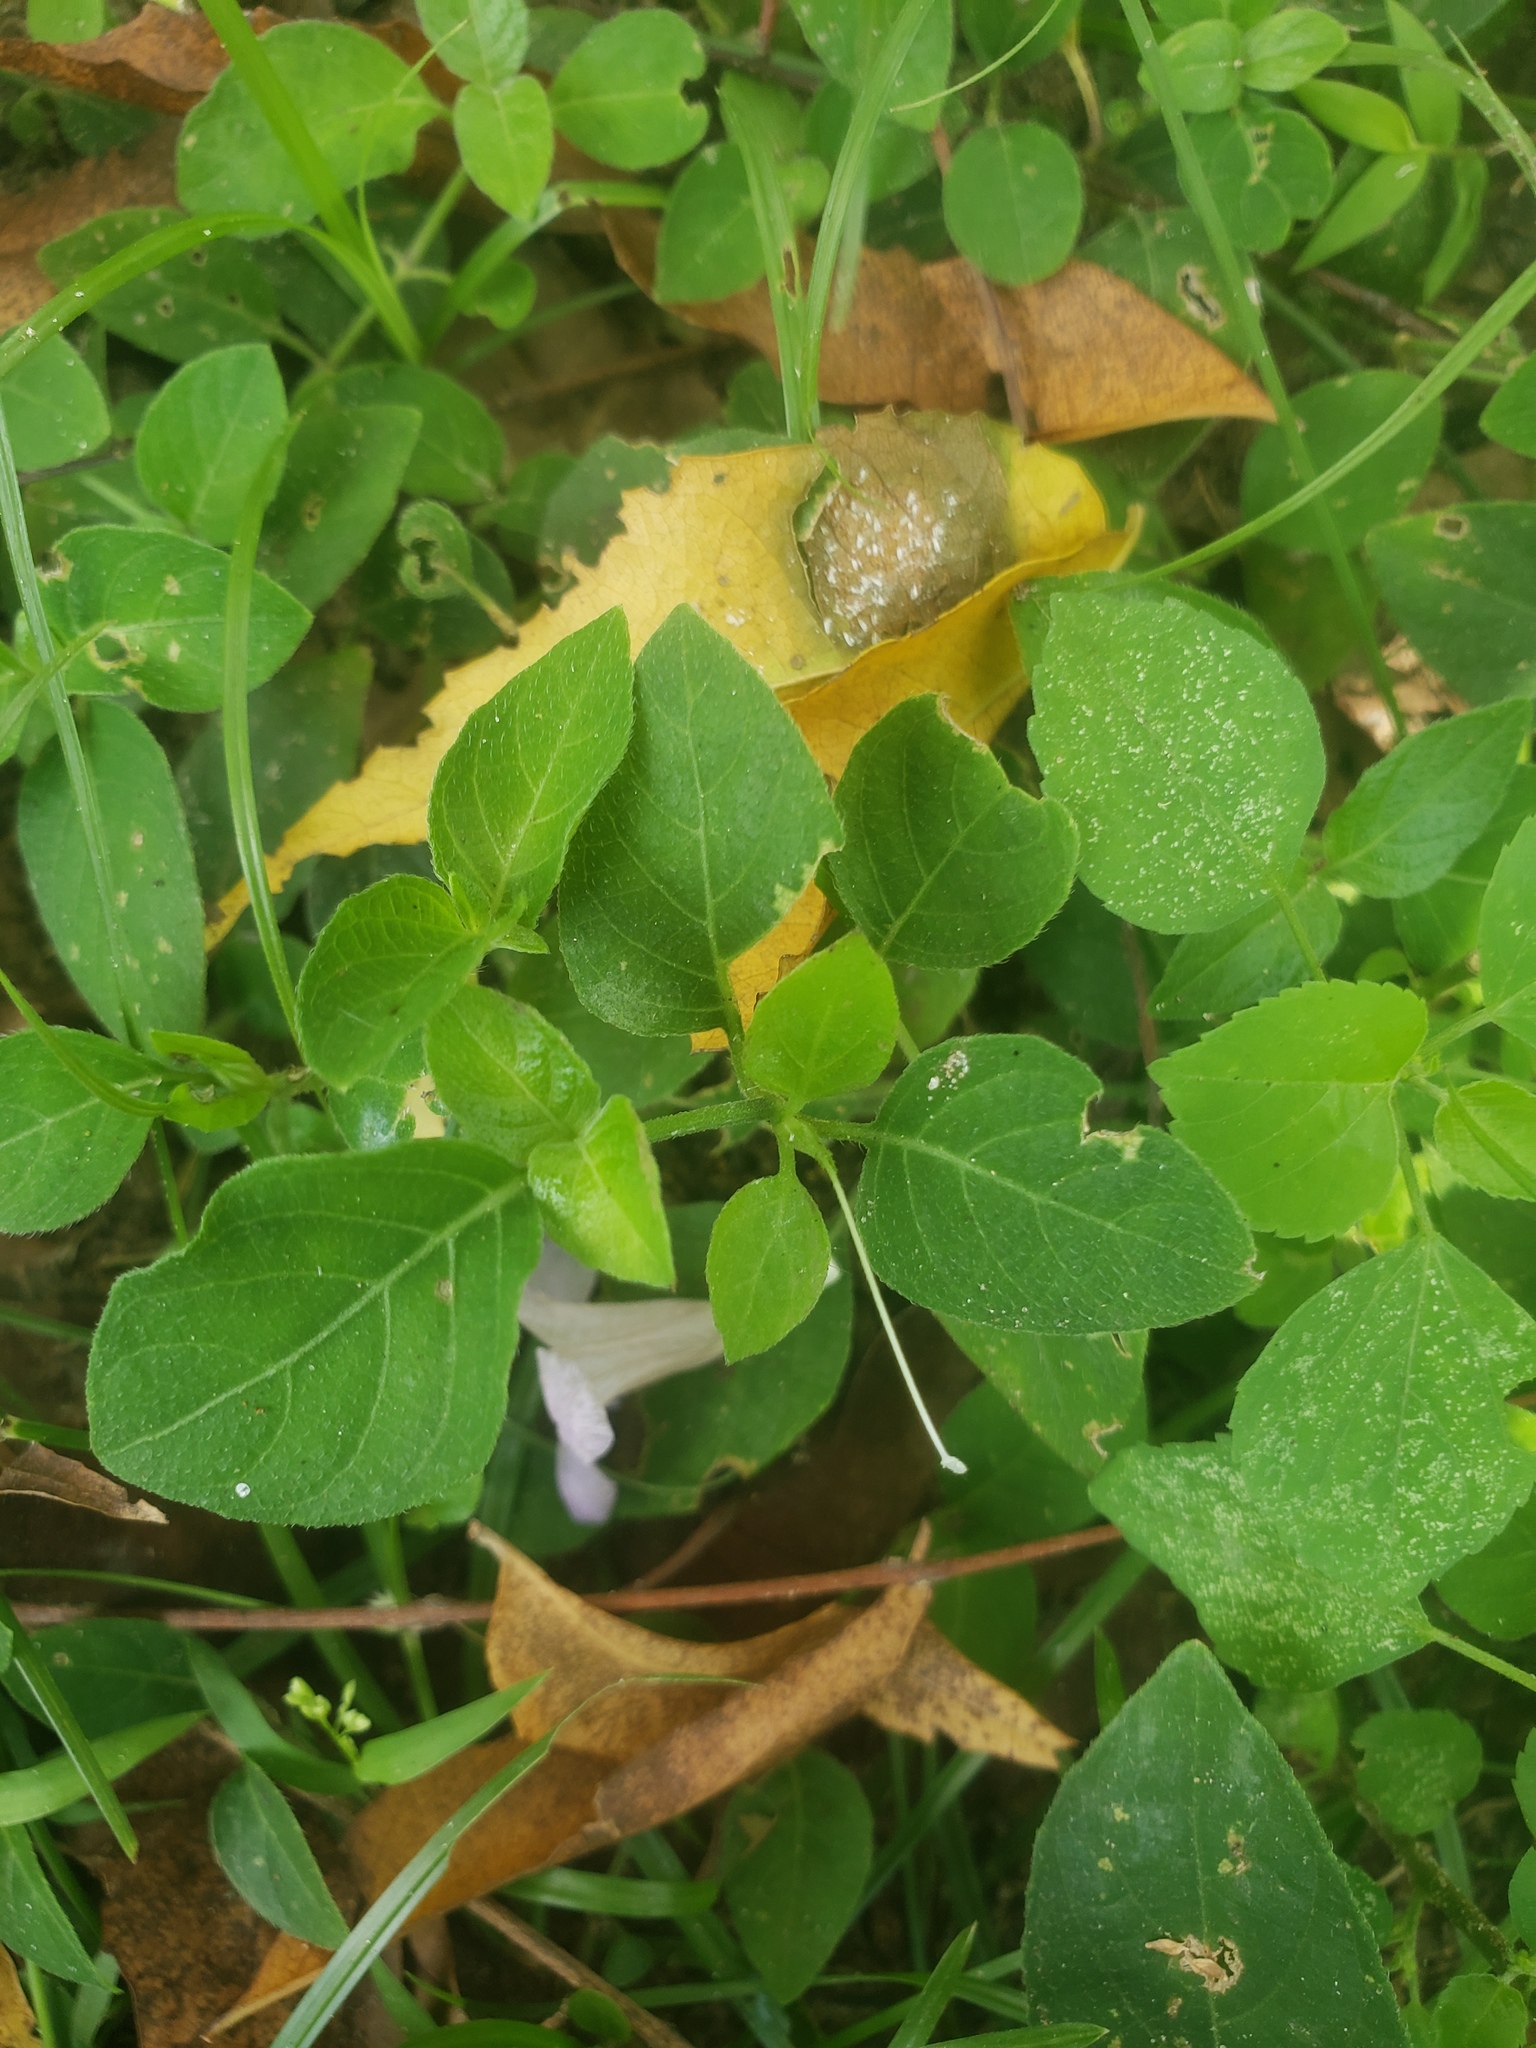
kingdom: Plantae
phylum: Tracheophyta
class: Magnoliopsida
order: Lamiales
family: Acanthaceae
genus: Ruellia
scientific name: Ruellia prostrata
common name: Prostrate wild petunia
